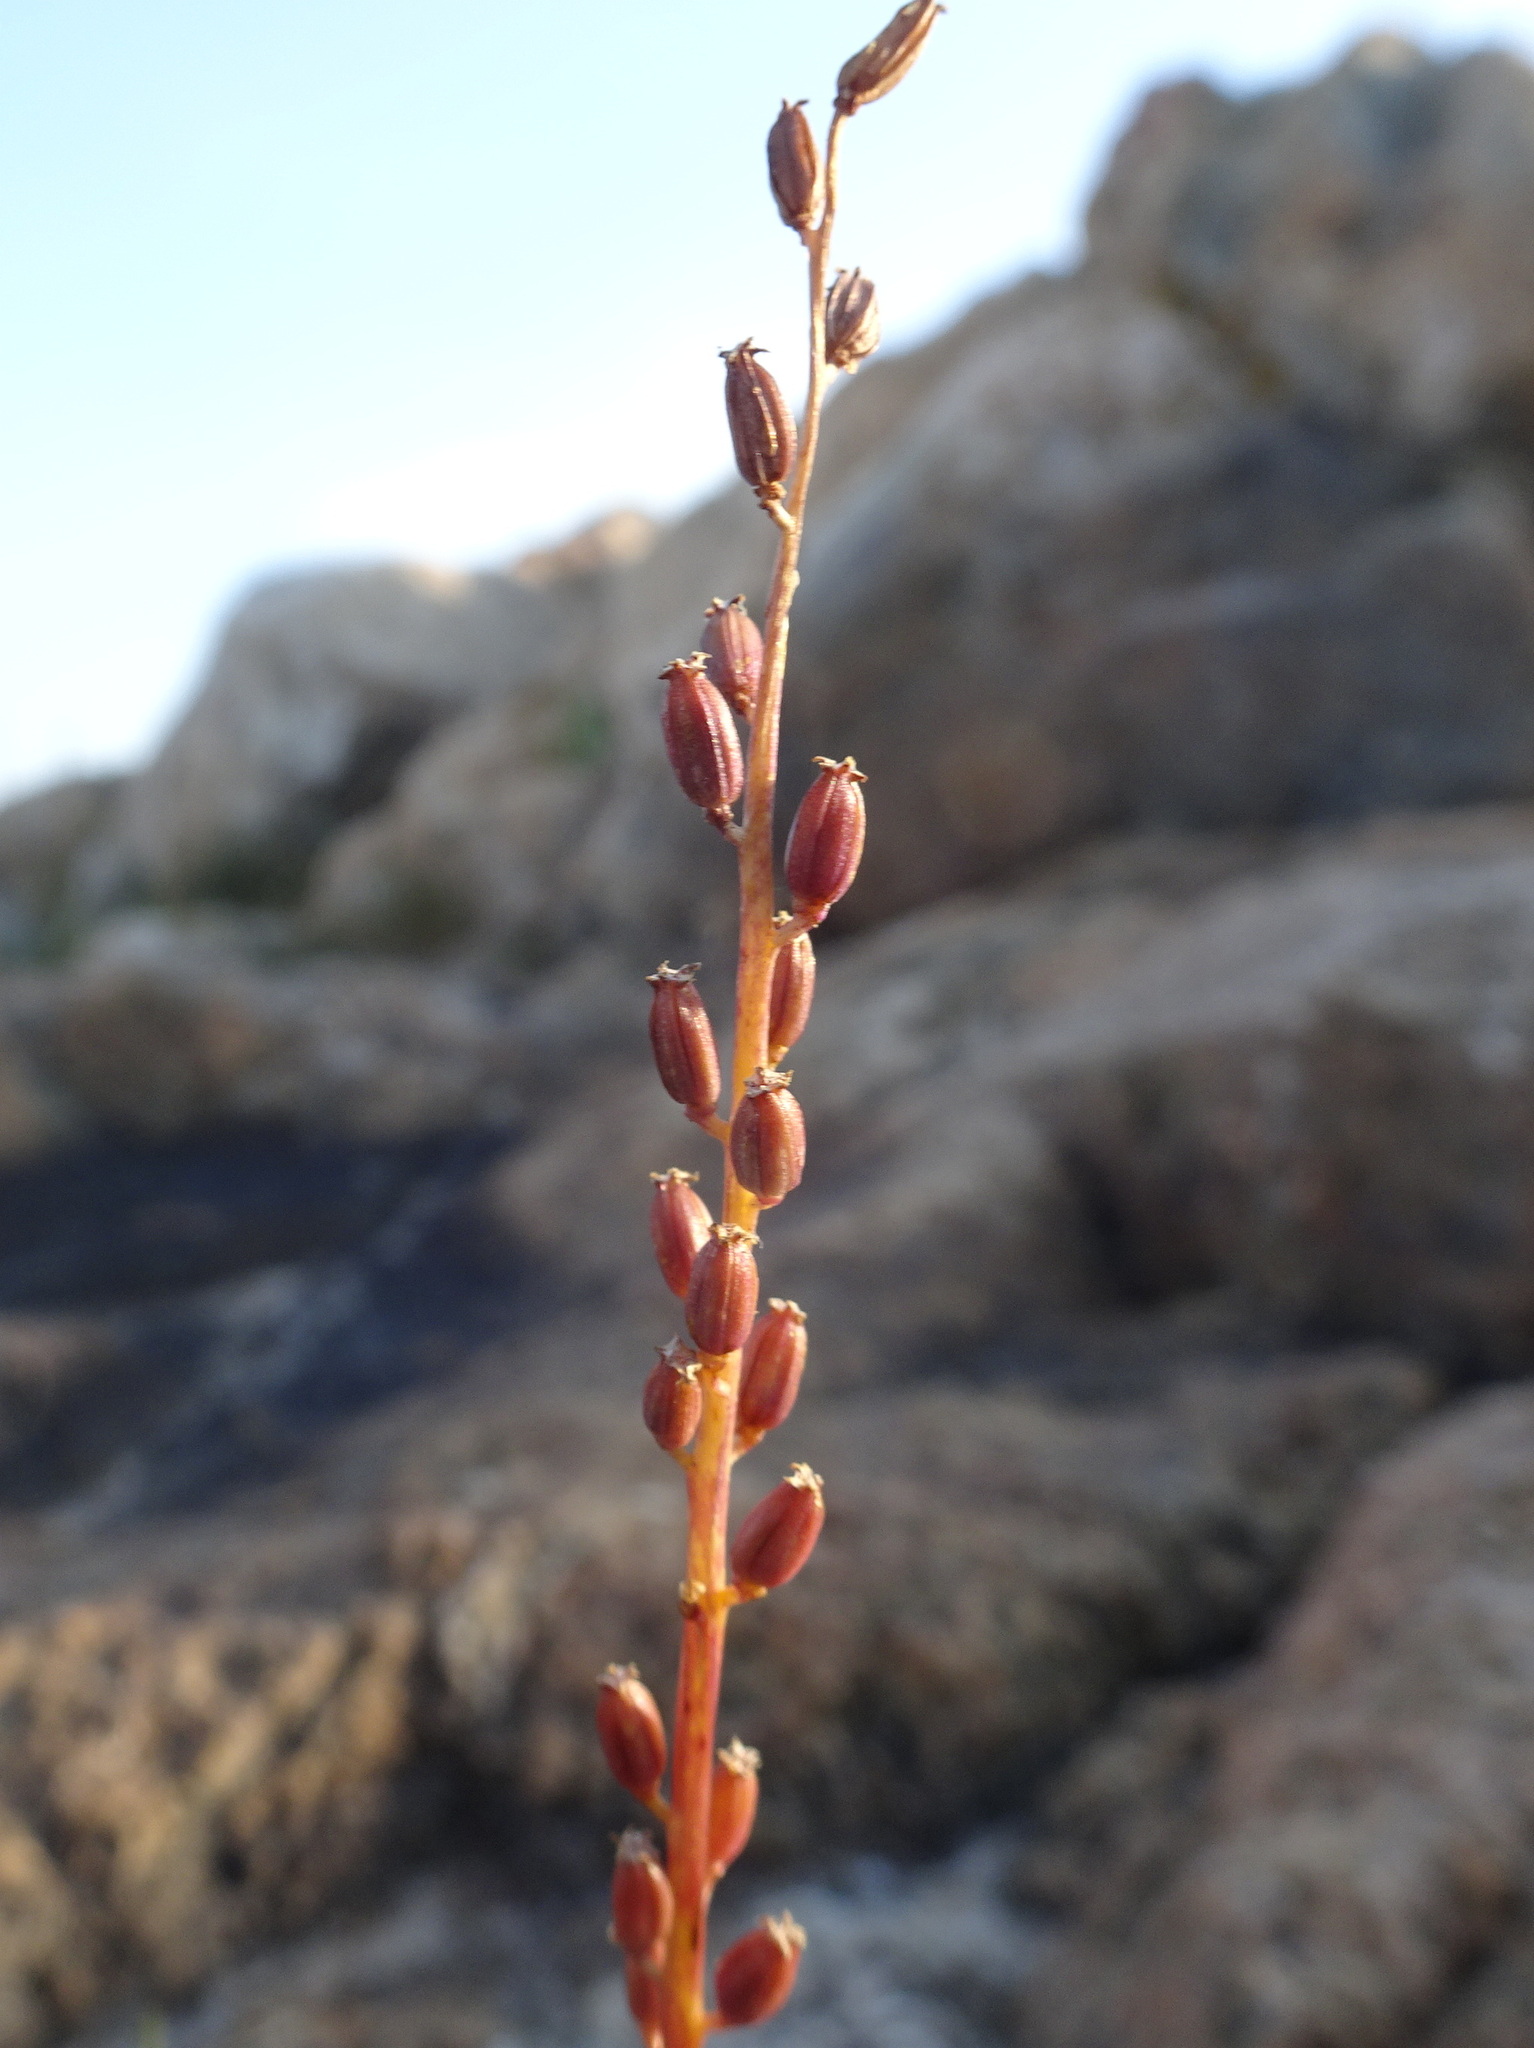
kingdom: Plantae
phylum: Tracheophyta
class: Liliopsida
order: Alismatales
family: Juncaginaceae
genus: Triglochin
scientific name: Triglochin maritima
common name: Sea arrowgrass
